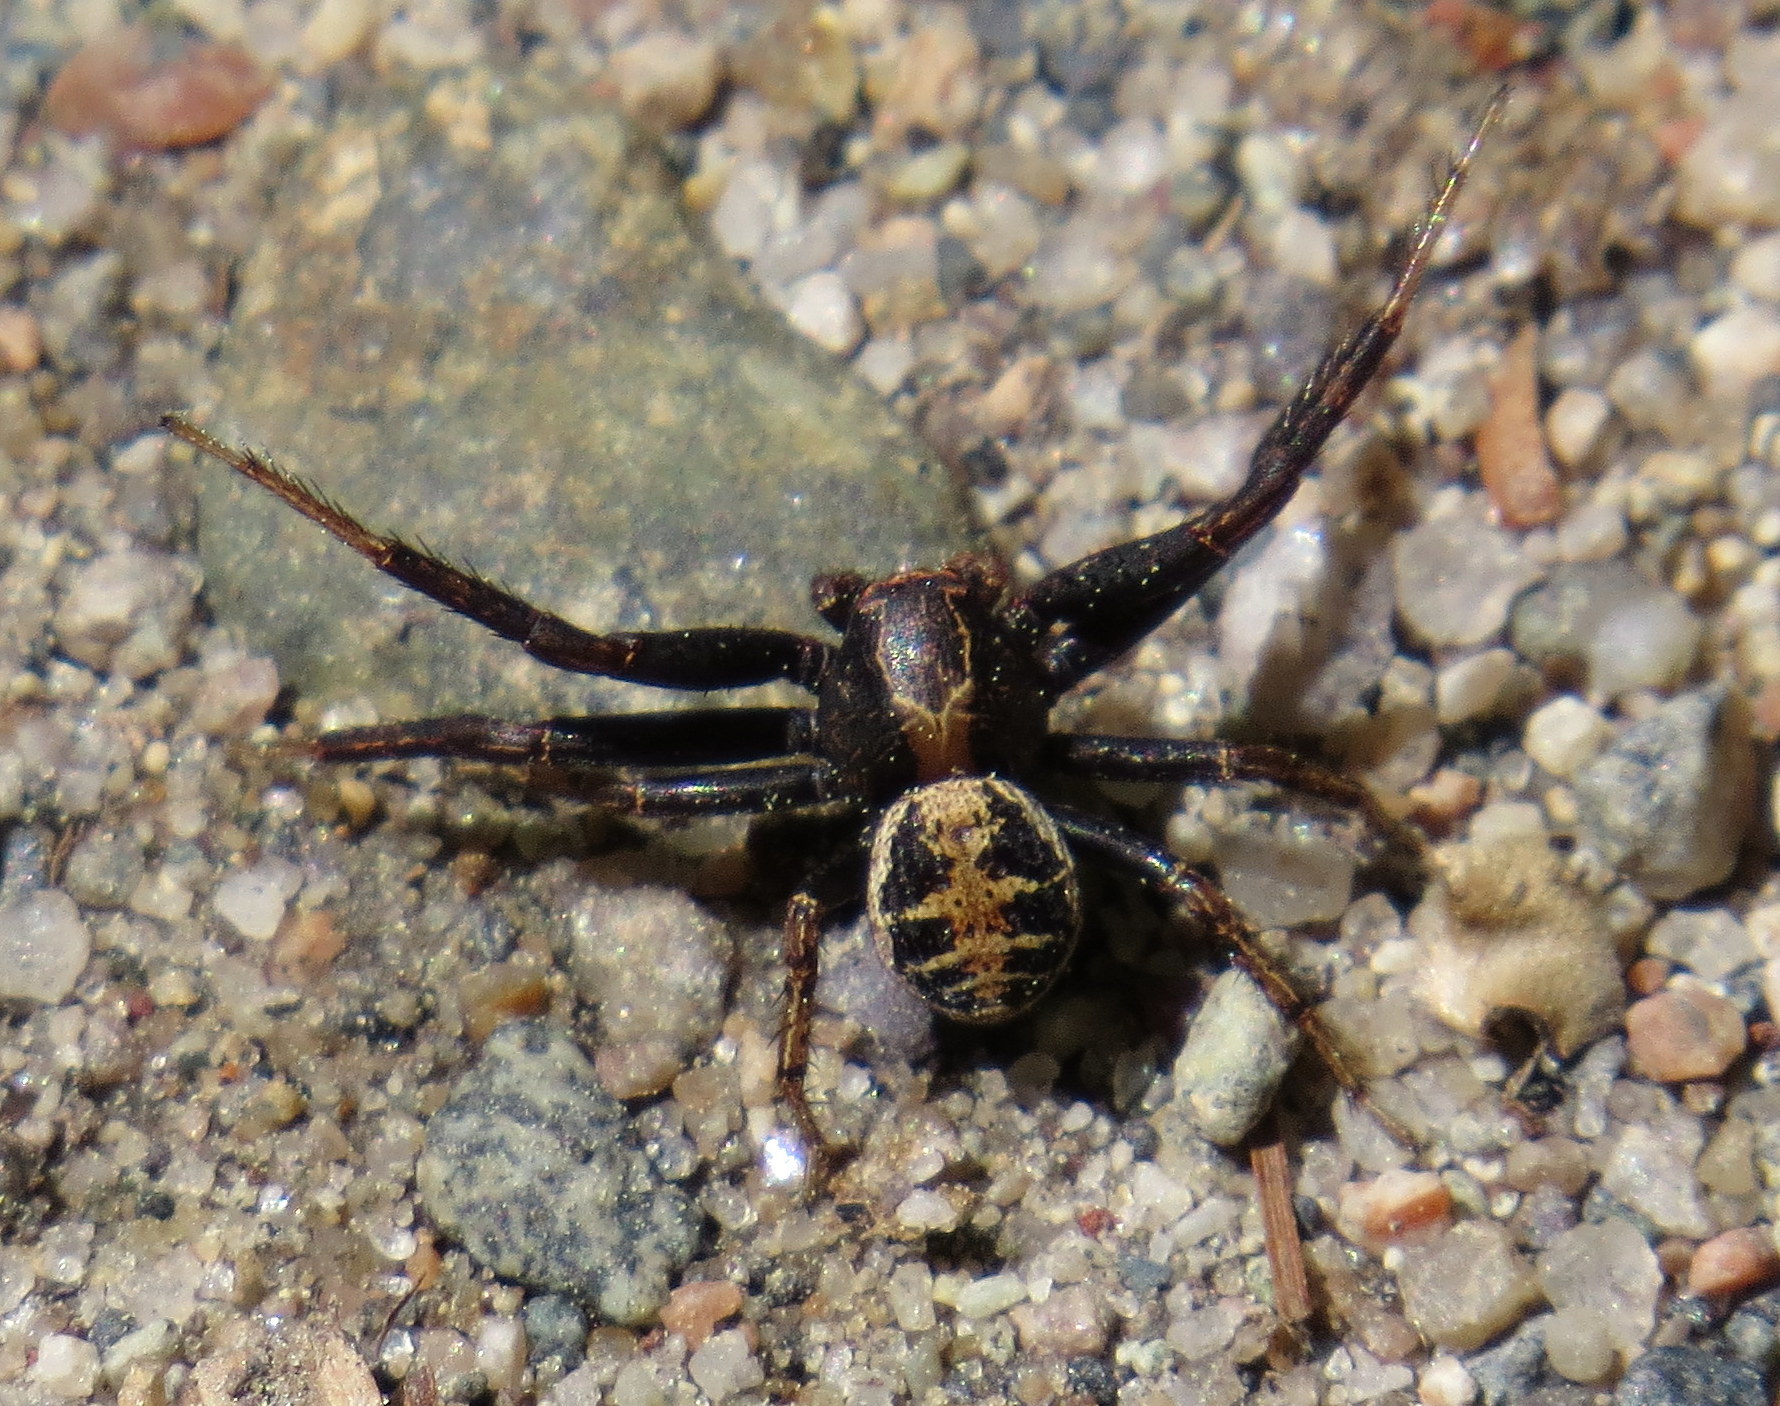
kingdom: Animalia
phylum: Arthropoda
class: Arachnida
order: Araneae
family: Thomisidae
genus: Xysticus
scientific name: Xysticus elegans
